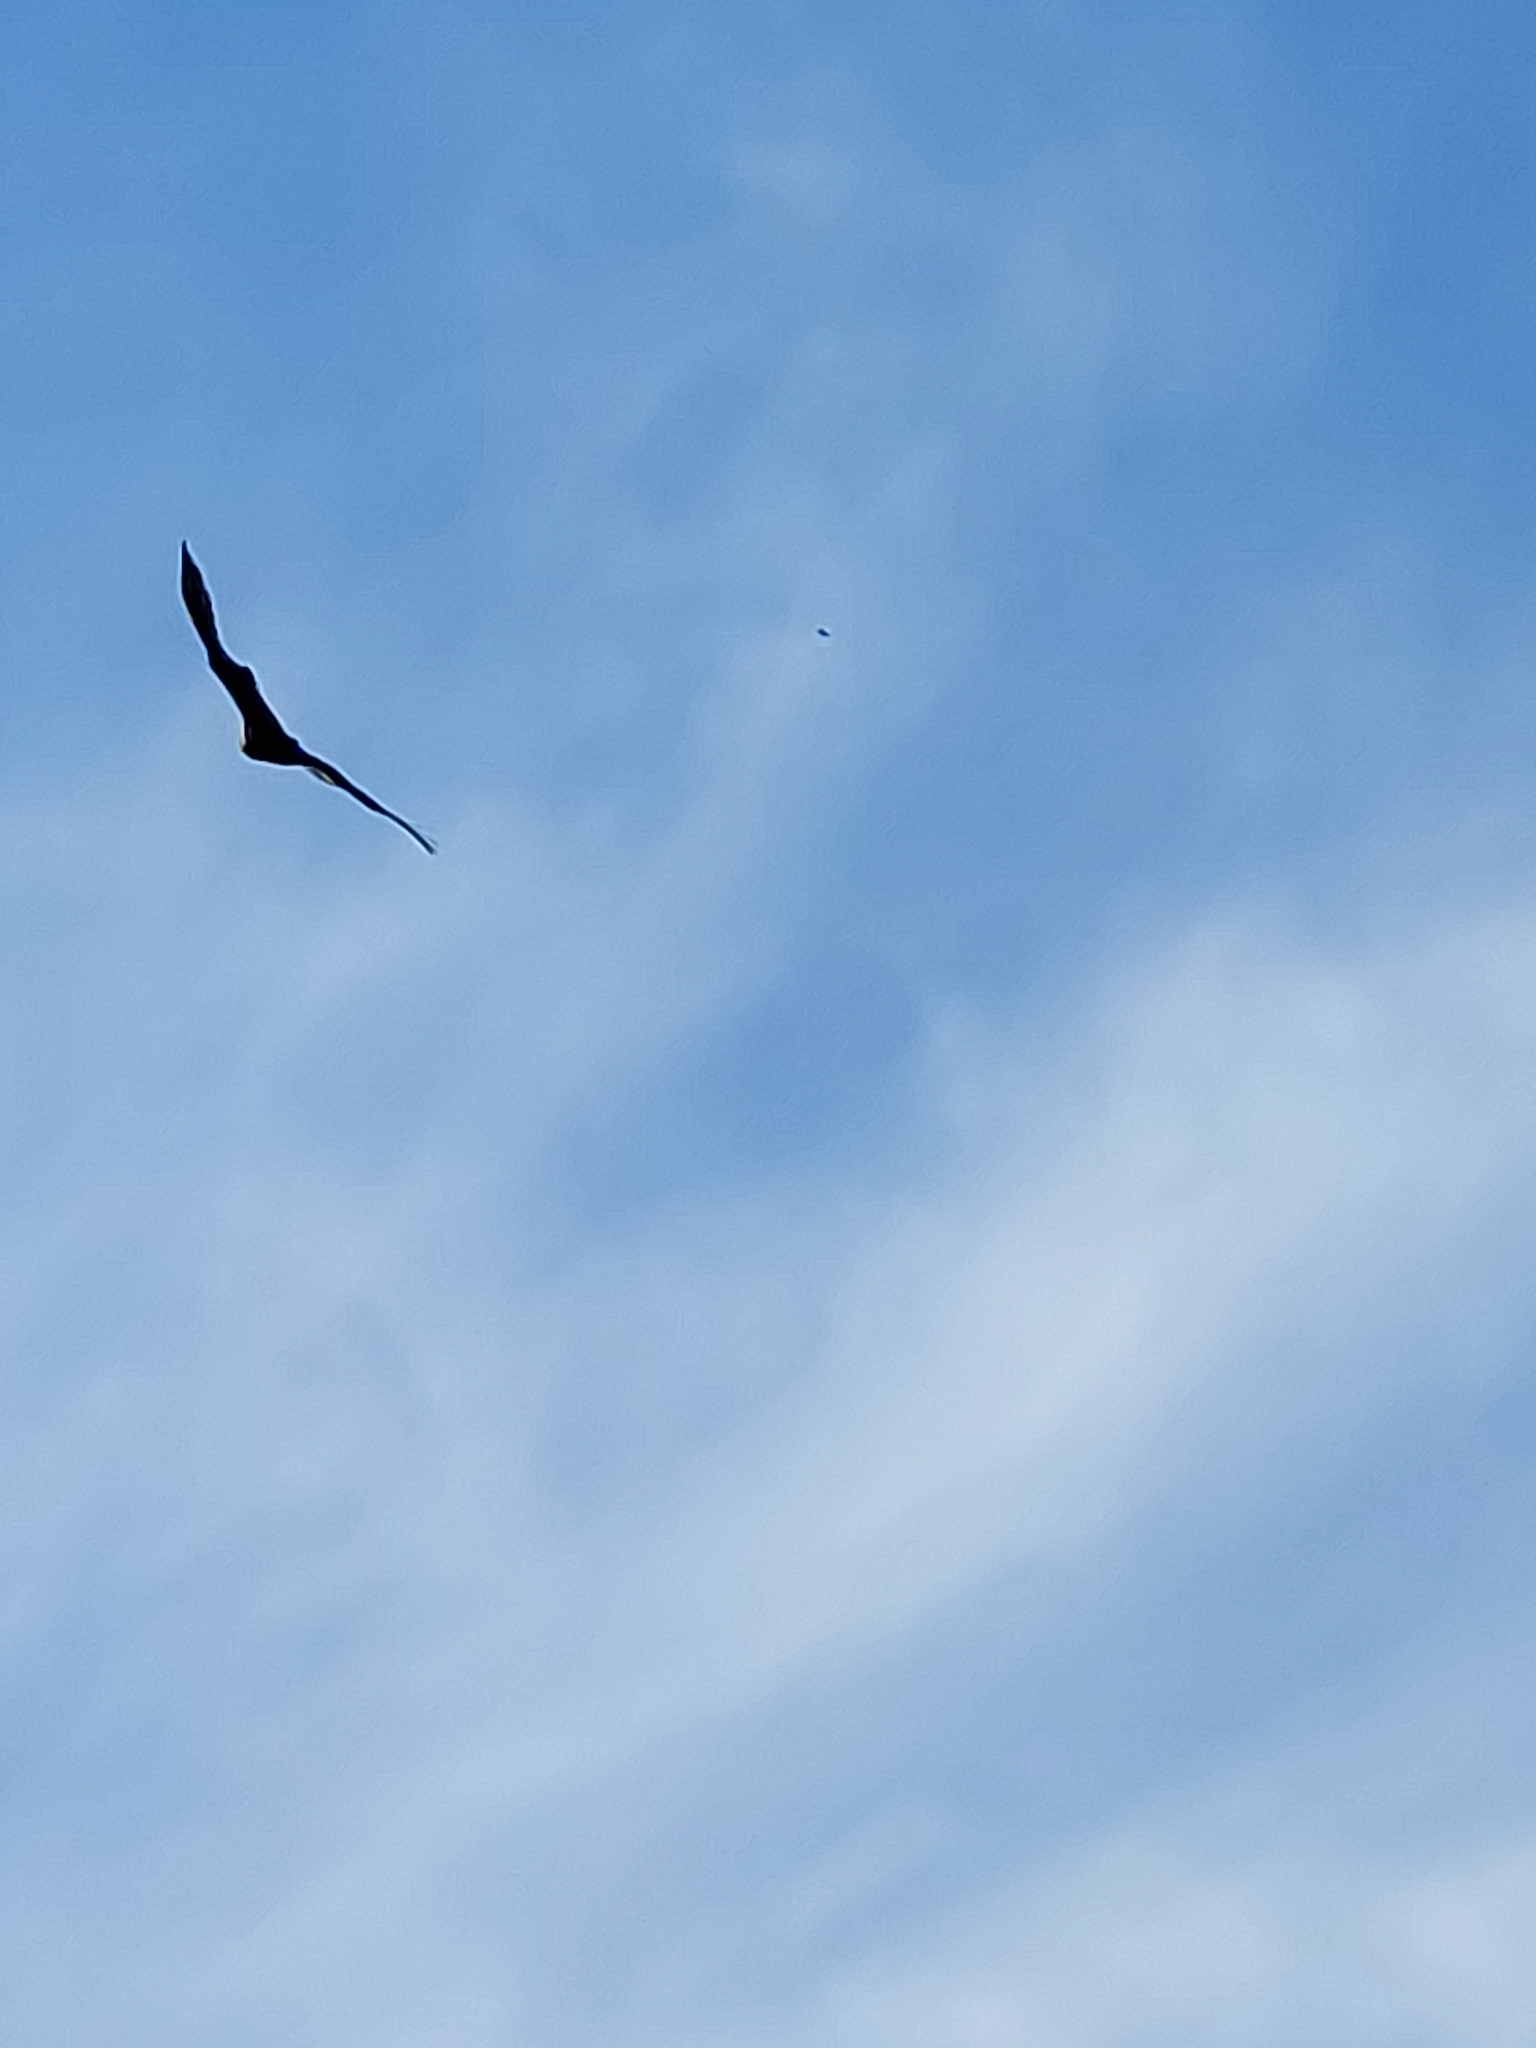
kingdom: Animalia
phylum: Chordata
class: Aves
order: Accipitriformes
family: Cathartidae
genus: Cathartes
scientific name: Cathartes aura
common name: Turkey vulture
